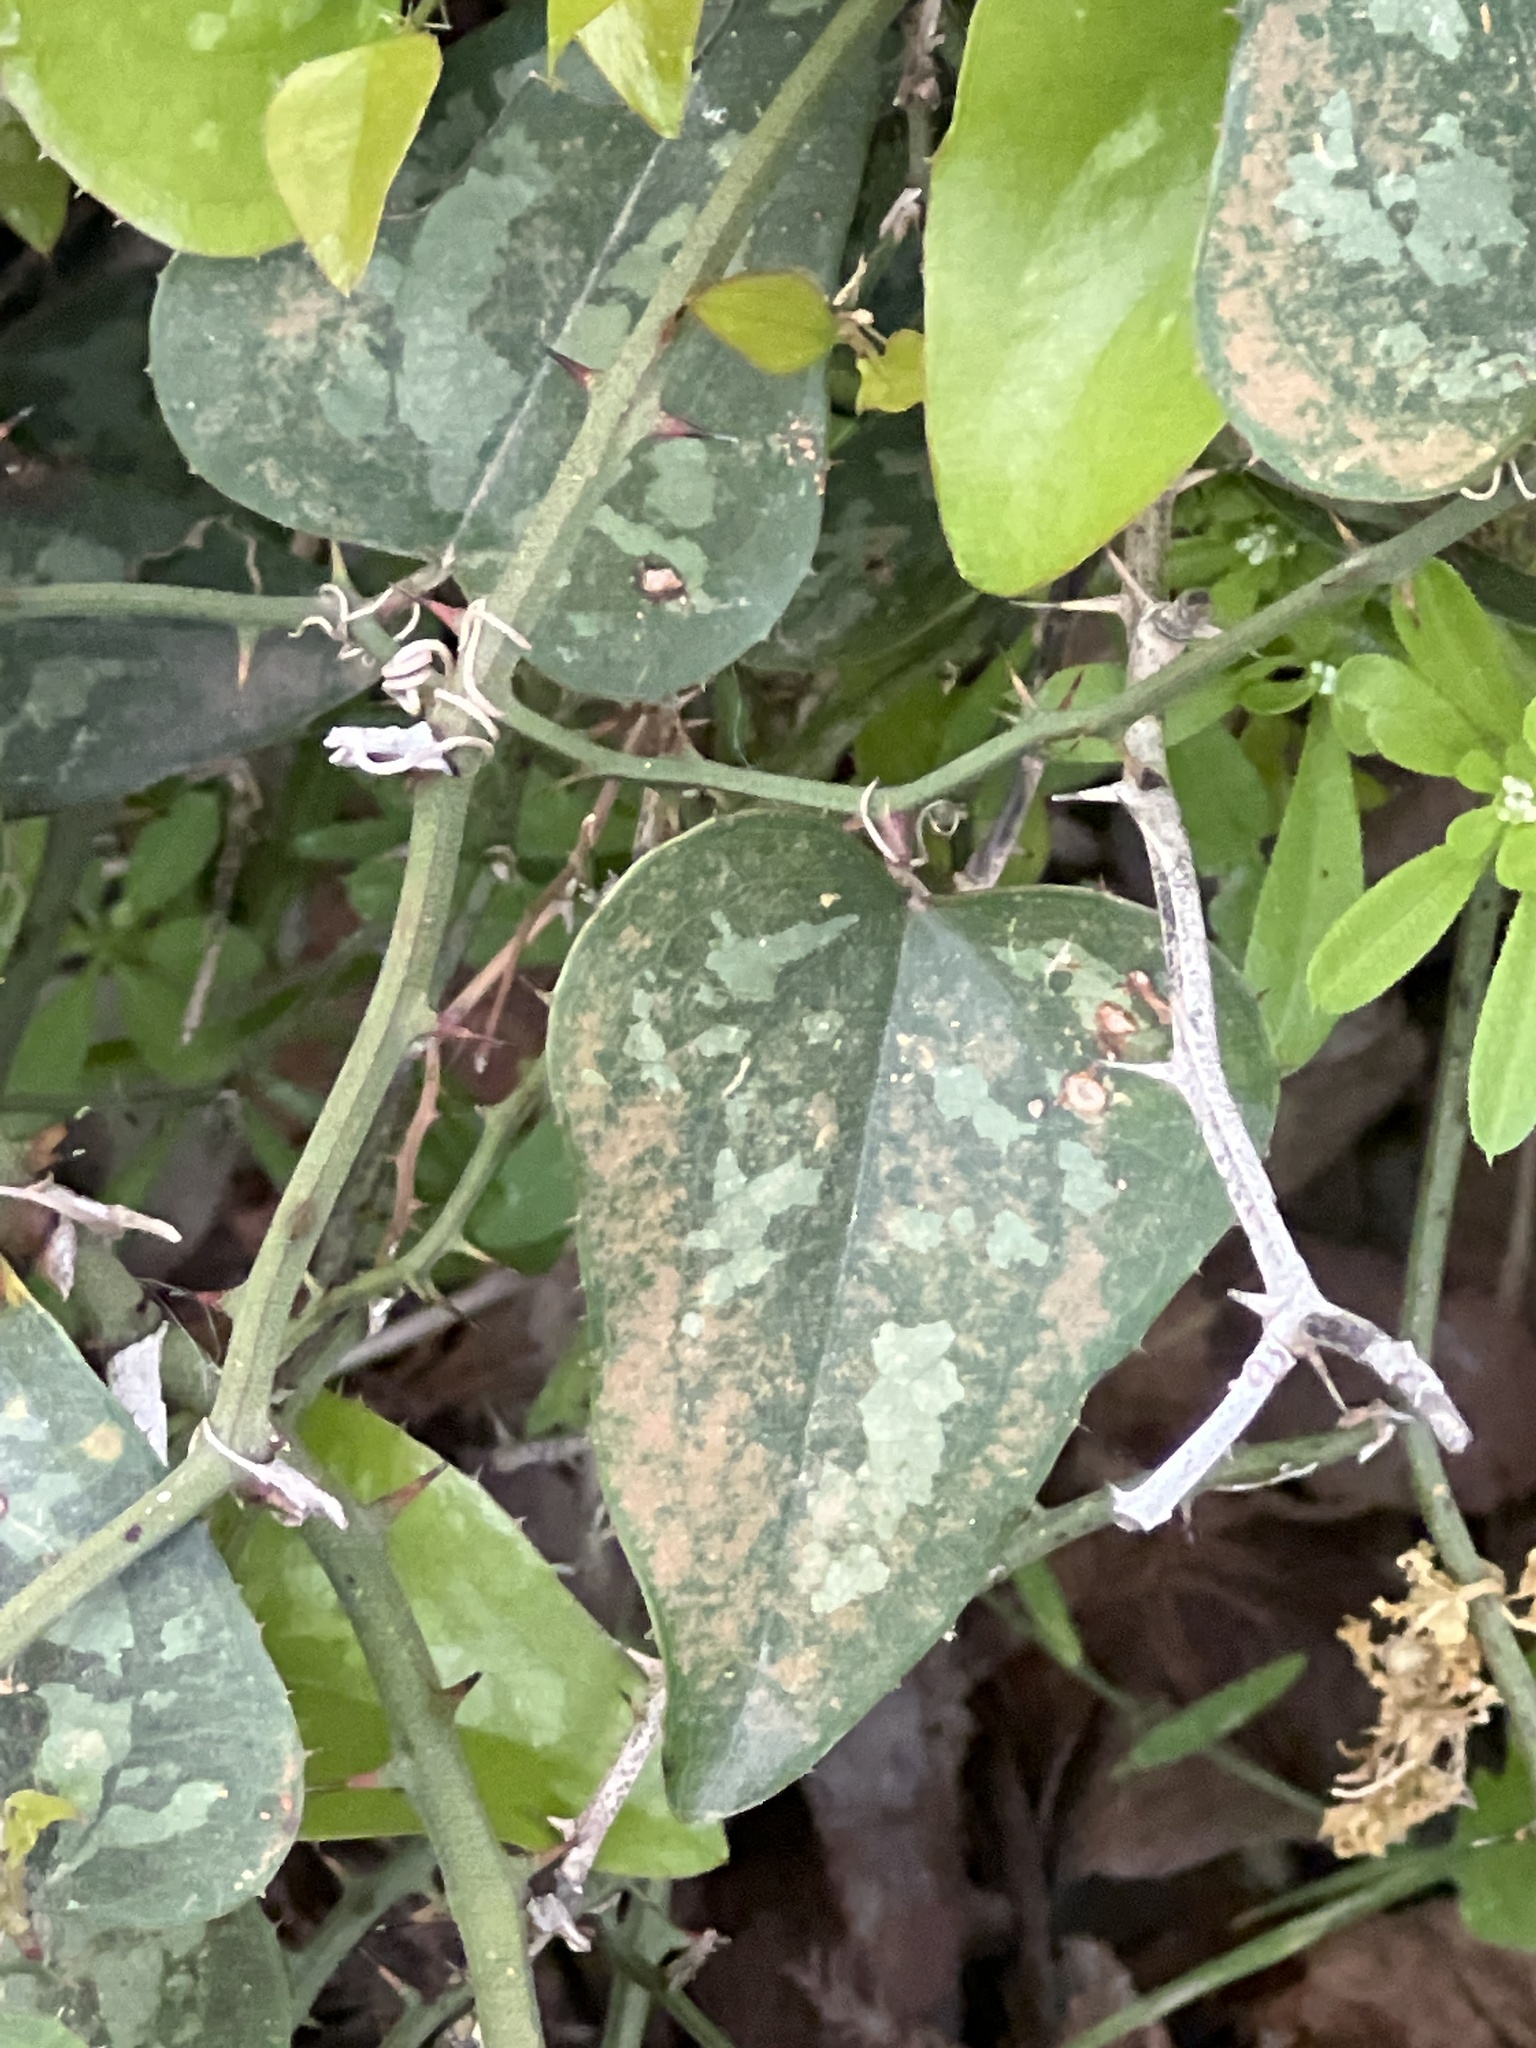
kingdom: Plantae
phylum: Tracheophyta
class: Liliopsida
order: Liliales
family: Smilacaceae
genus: Smilax
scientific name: Smilax bona-nox
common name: Catbrier
